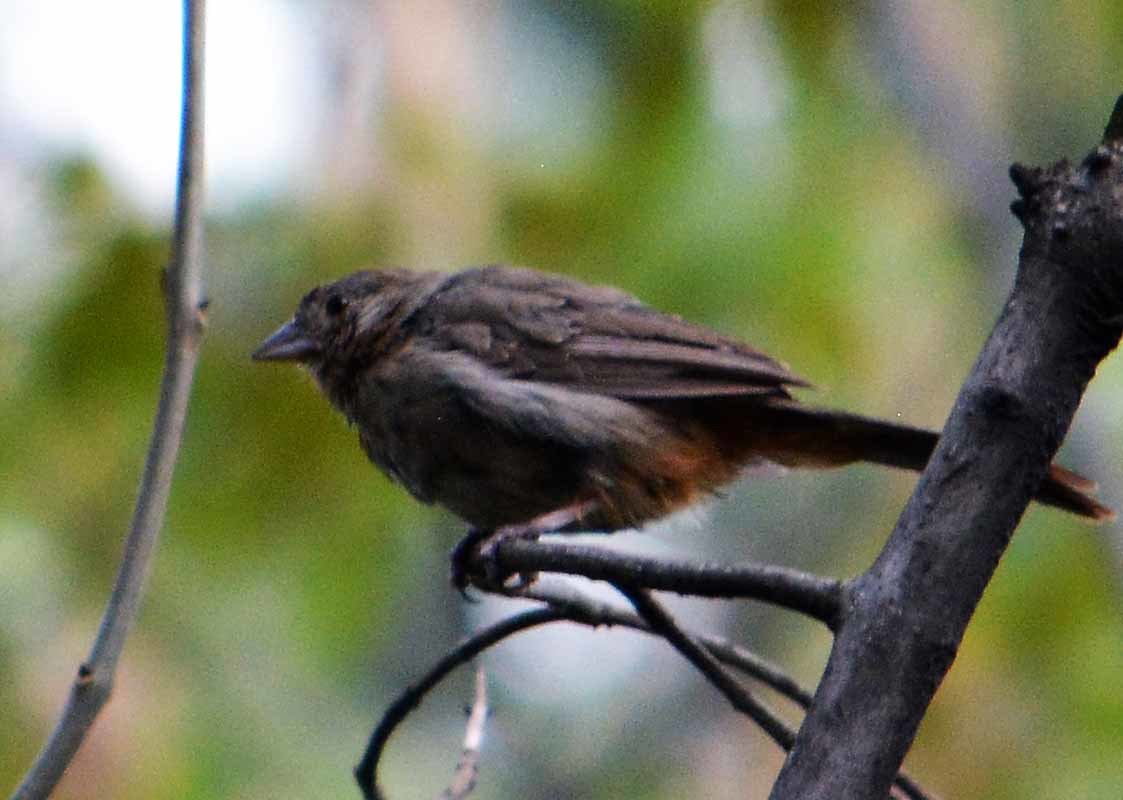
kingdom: Animalia
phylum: Chordata
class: Aves
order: Passeriformes
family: Passerellidae
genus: Melozone
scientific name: Melozone fusca
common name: Canyon towhee
